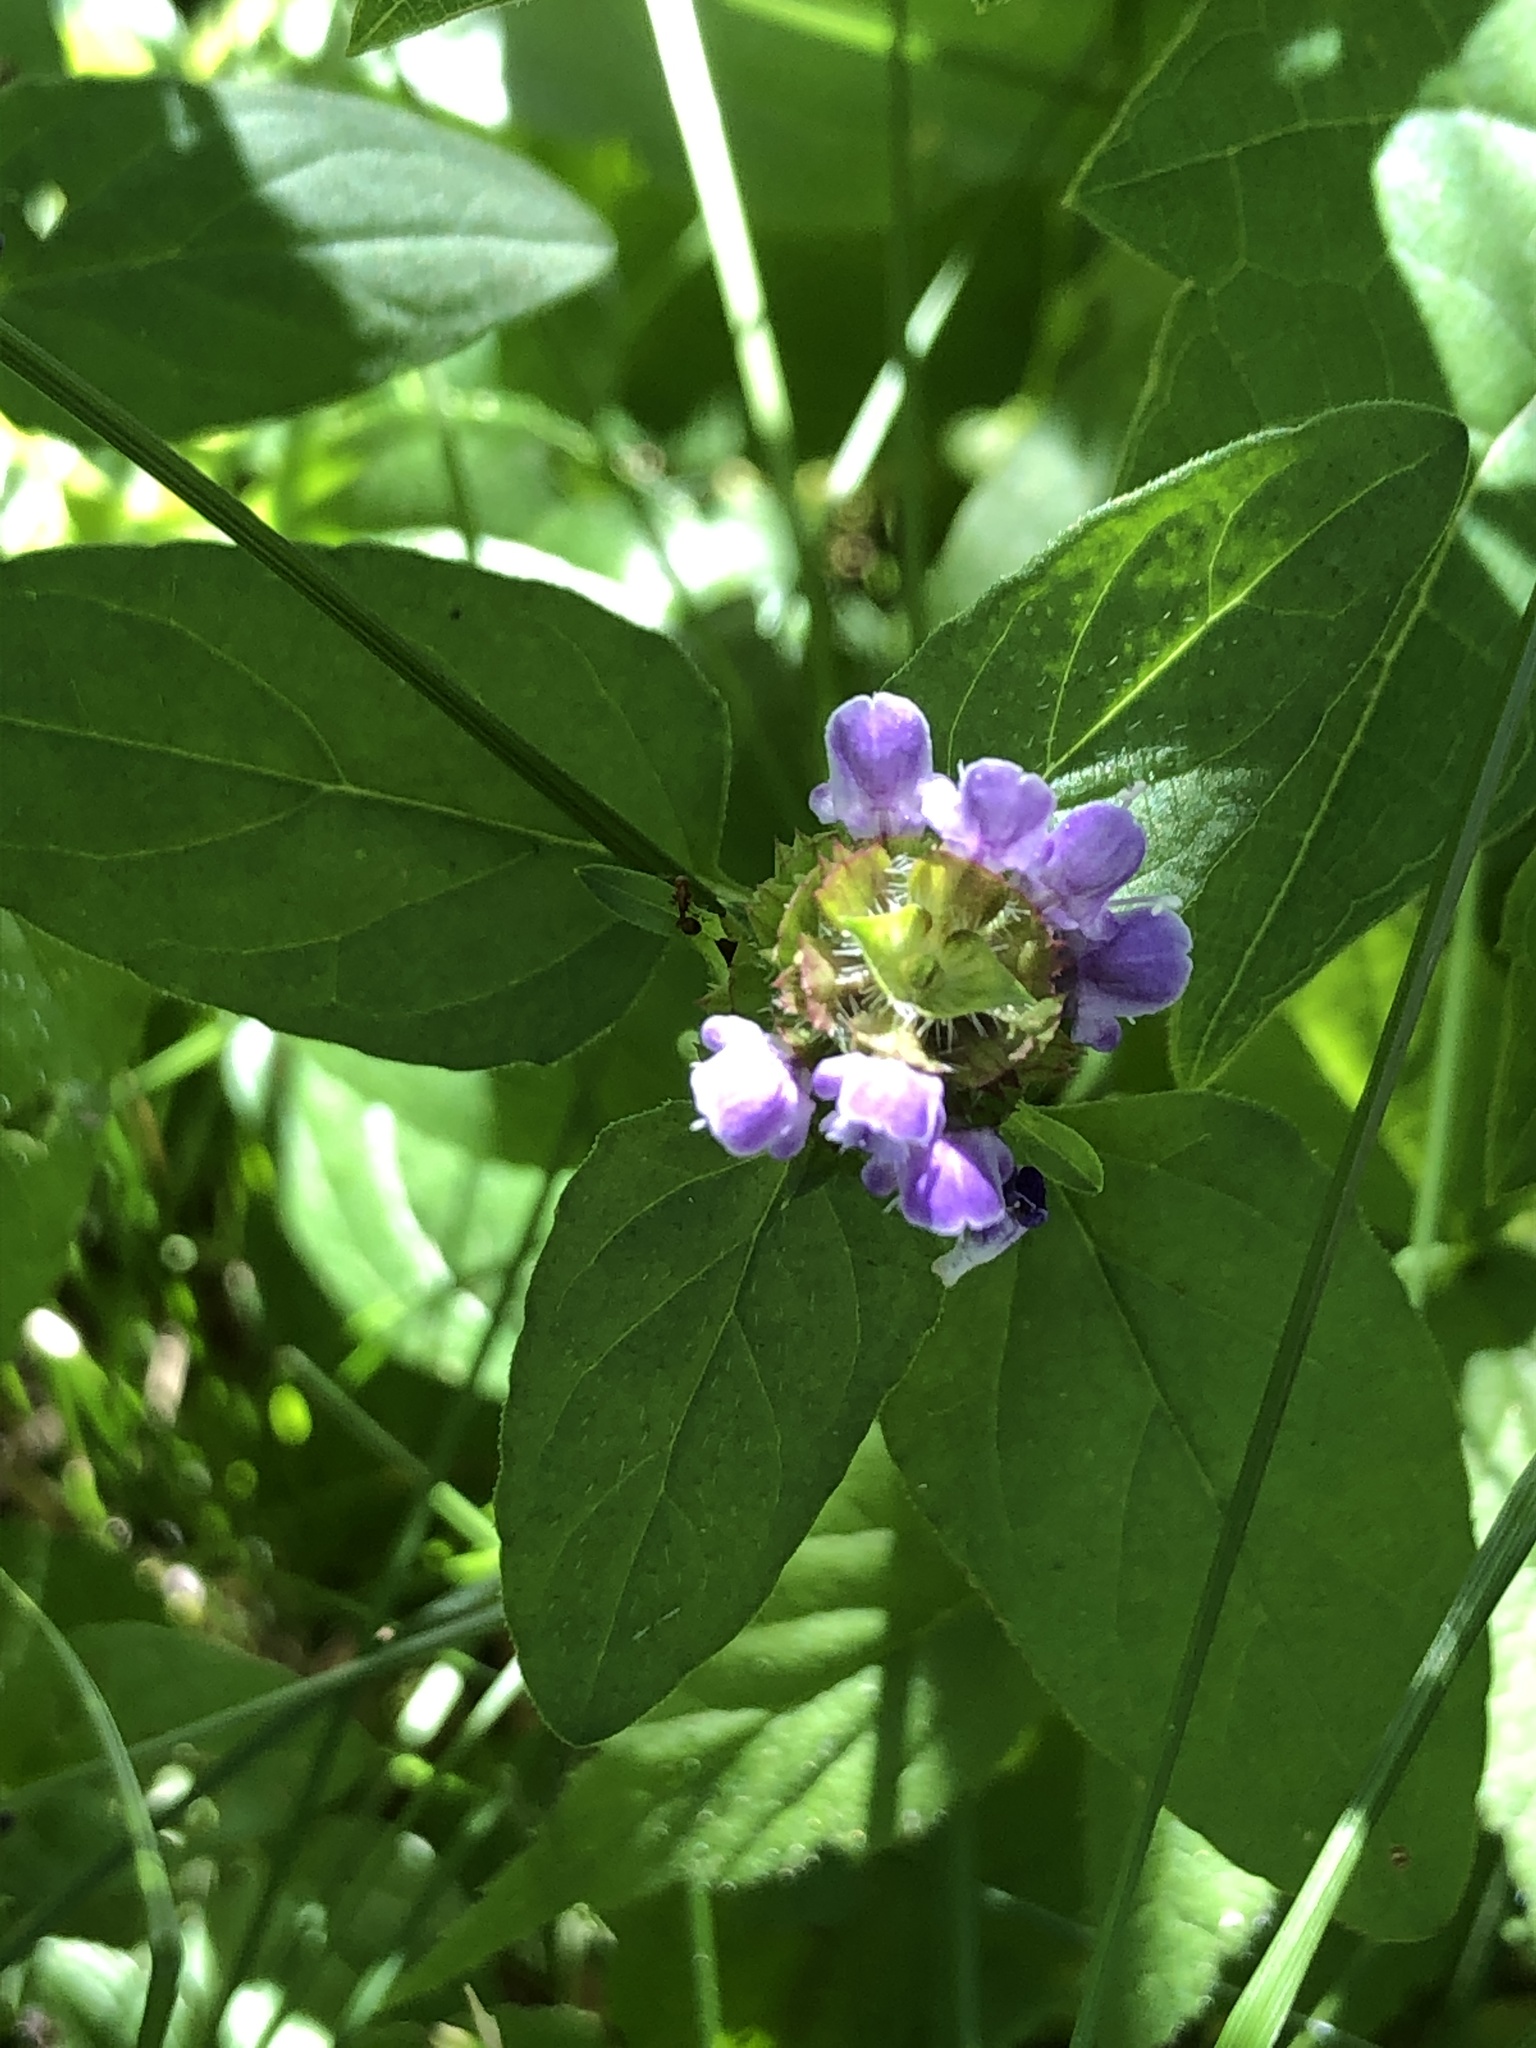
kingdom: Plantae
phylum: Tracheophyta
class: Magnoliopsida
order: Lamiales
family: Lamiaceae
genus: Prunella
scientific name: Prunella vulgaris
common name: Heal-all
